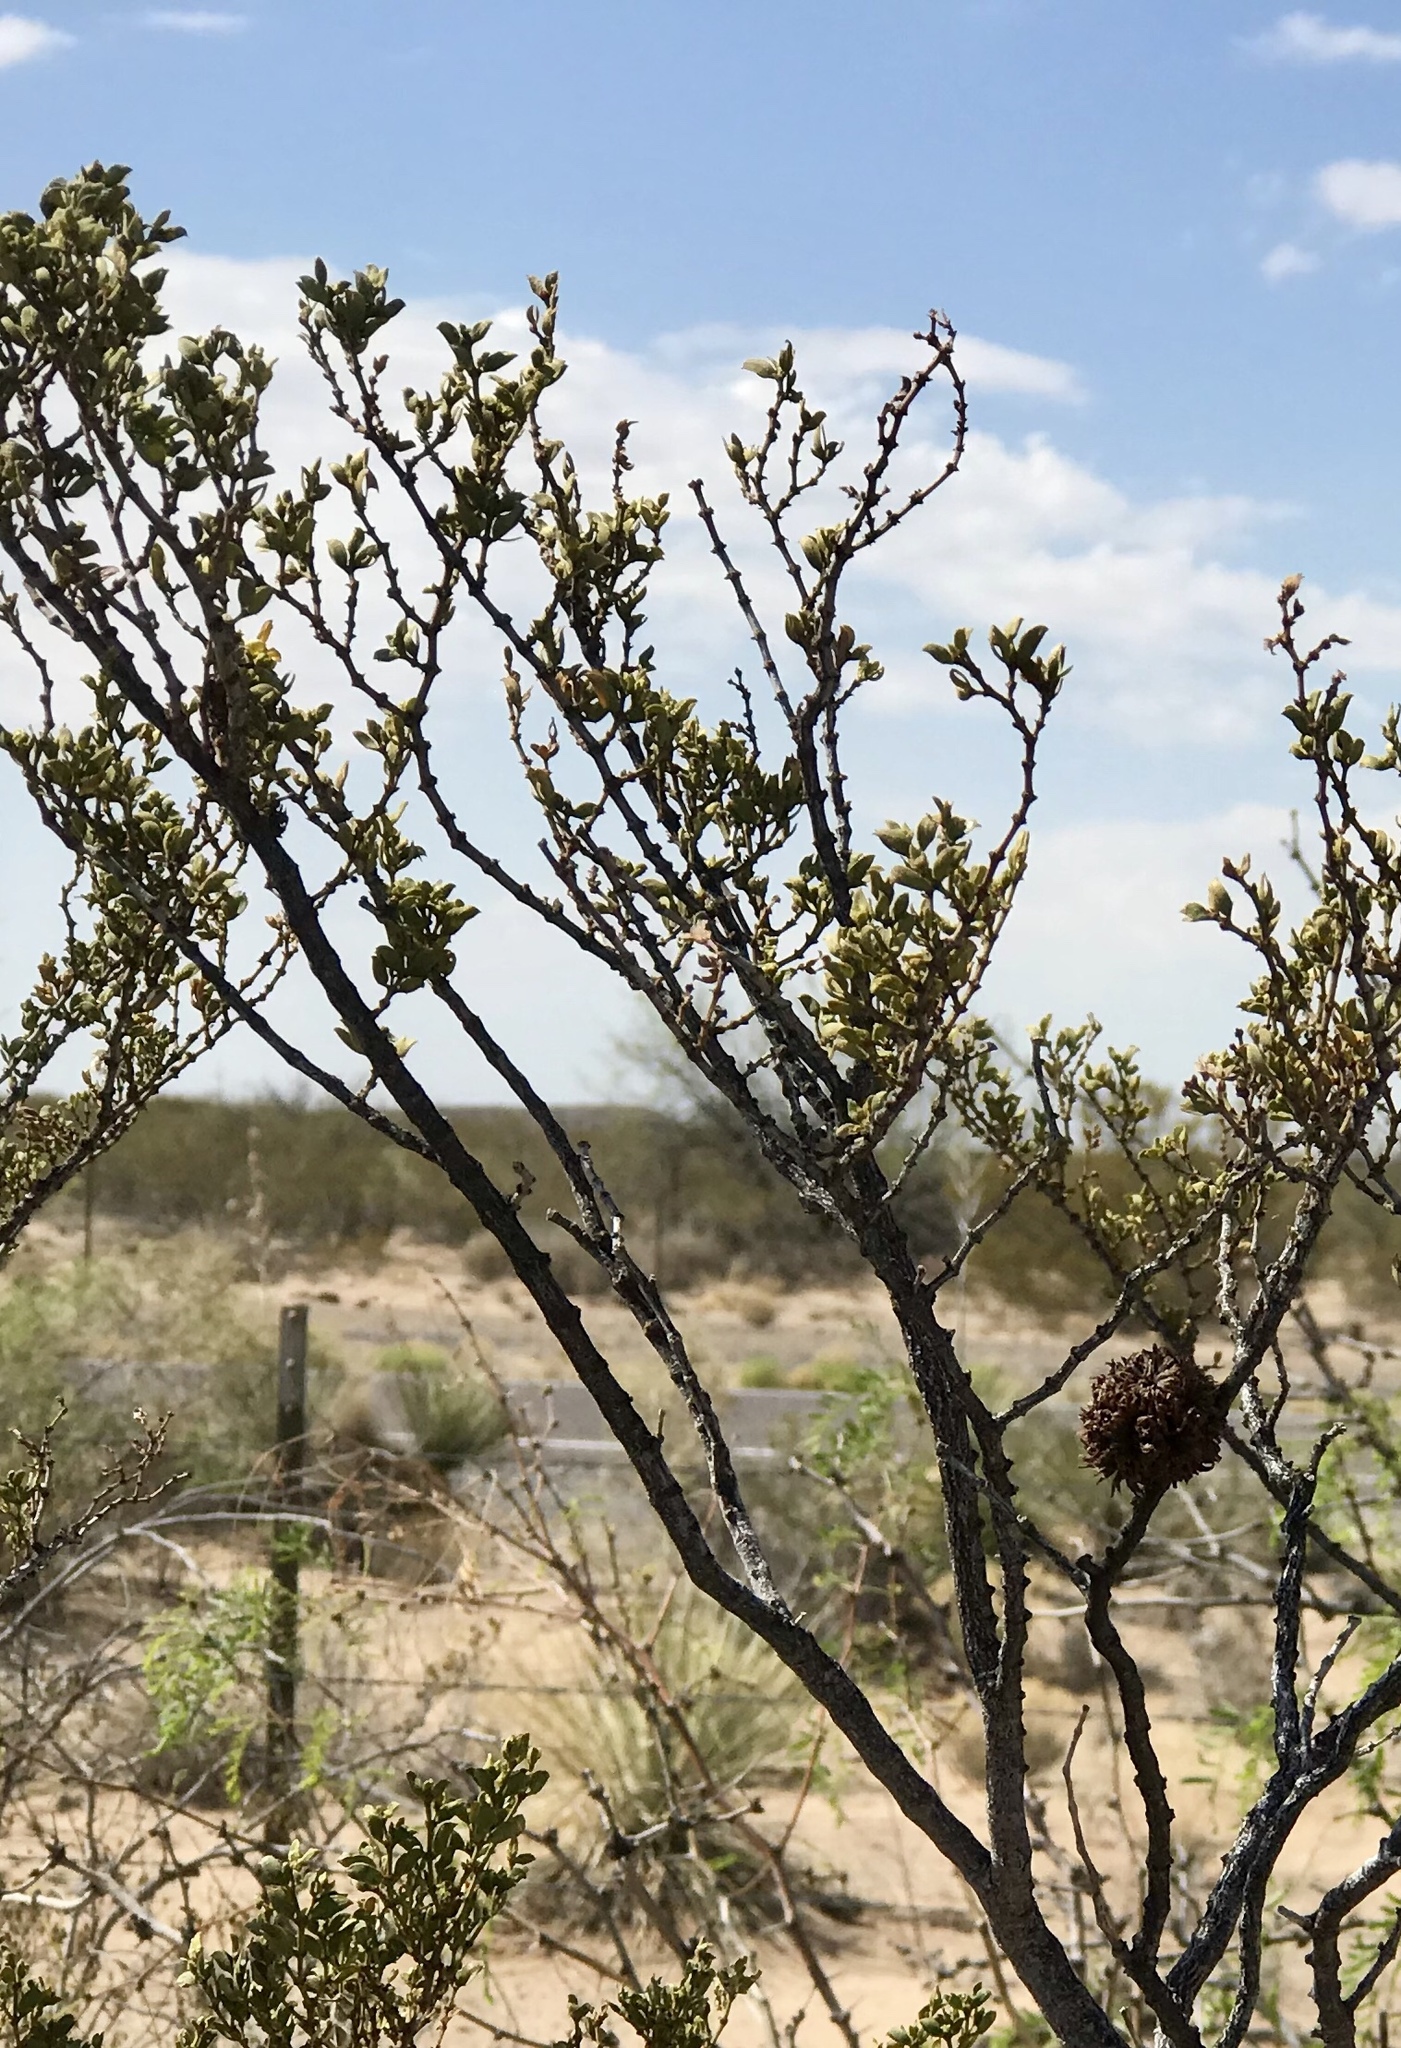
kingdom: Animalia
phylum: Arthropoda
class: Insecta
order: Diptera
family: Cecidomyiidae
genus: Asphondylia
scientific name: Asphondylia auripila
